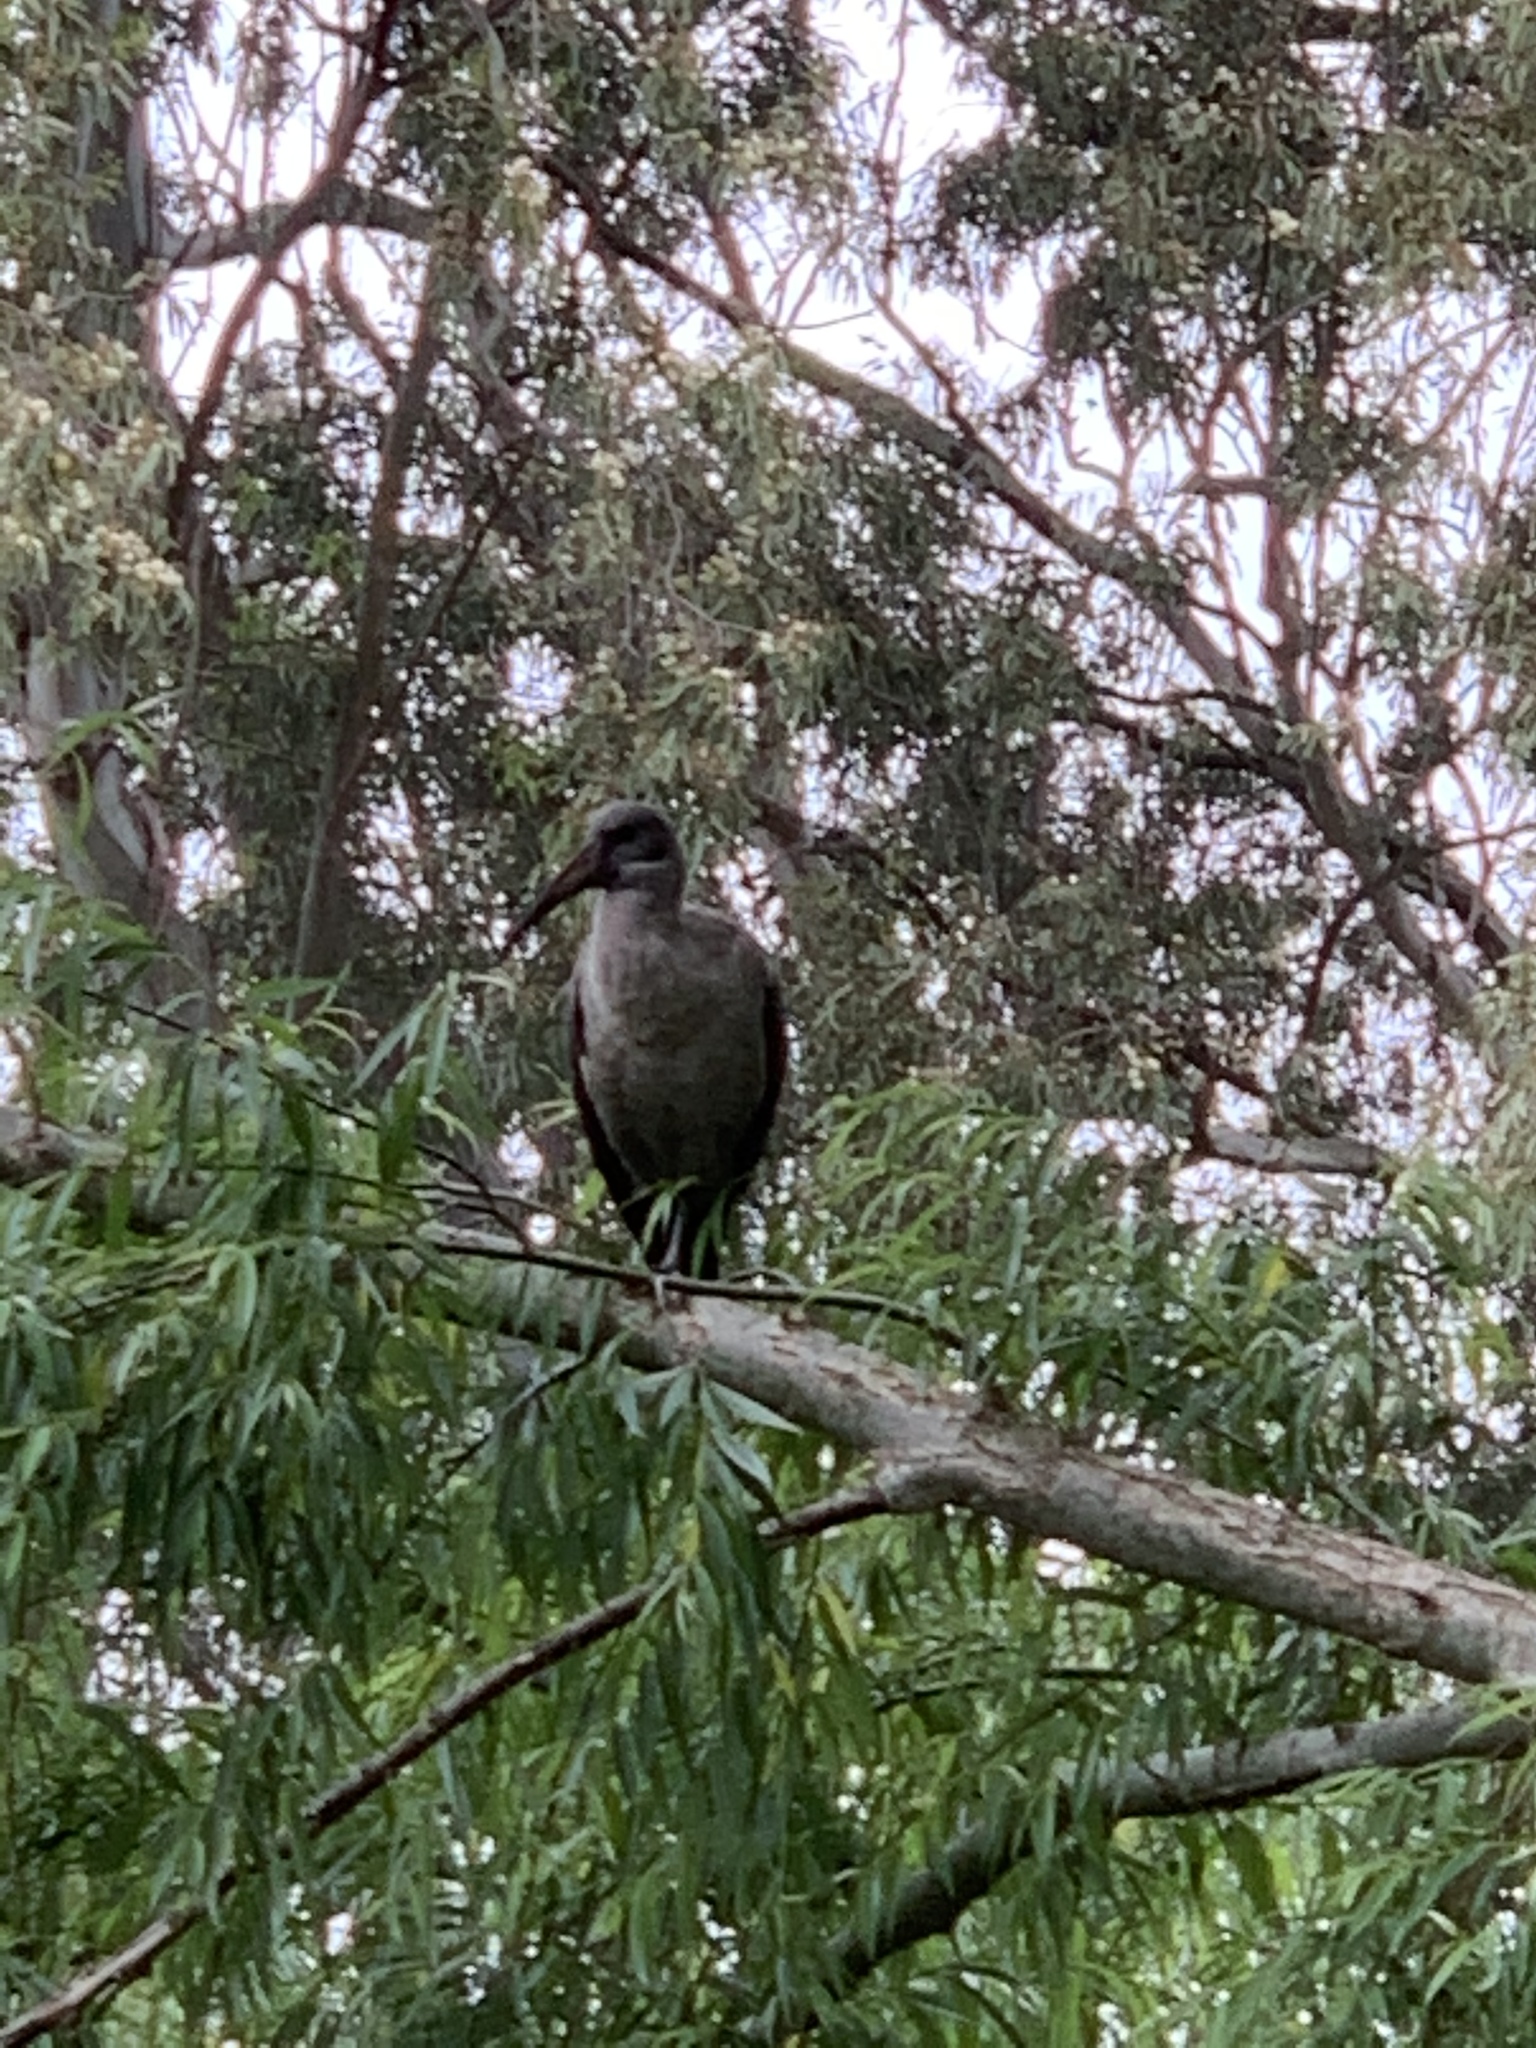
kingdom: Animalia
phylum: Chordata
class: Aves
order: Pelecaniformes
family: Threskiornithidae
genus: Bostrychia
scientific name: Bostrychia hagedash
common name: Hadada ibis
